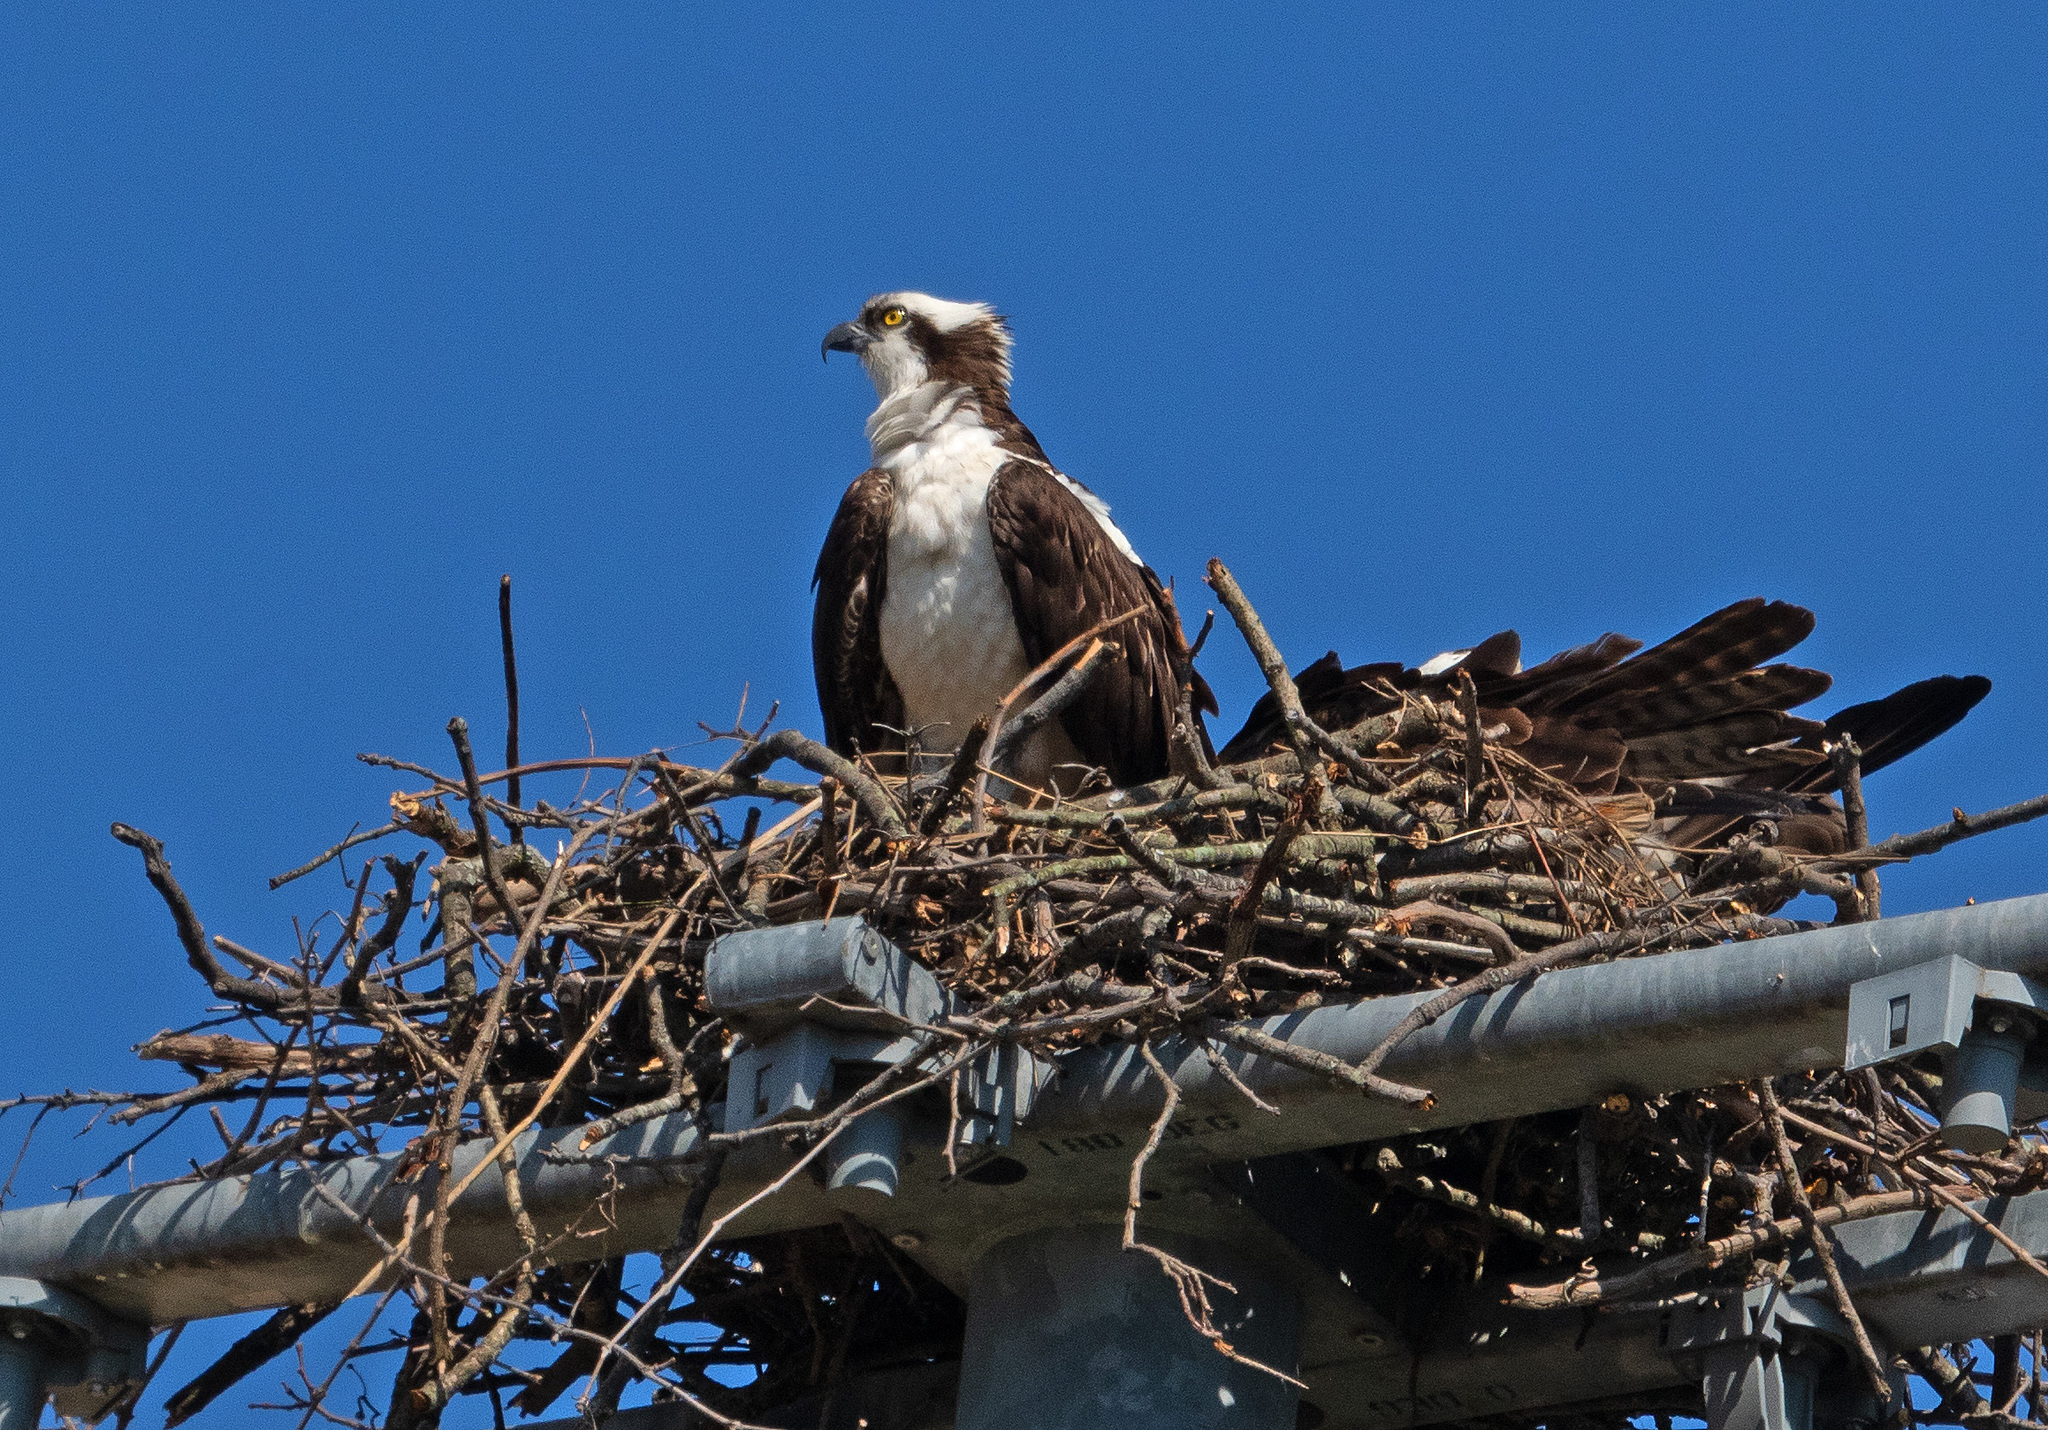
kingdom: Animalia
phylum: Chordata
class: Aves
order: Accipitriformes
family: Pandionidae
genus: Pandion
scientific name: Pandion haliaetus
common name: Osprey
